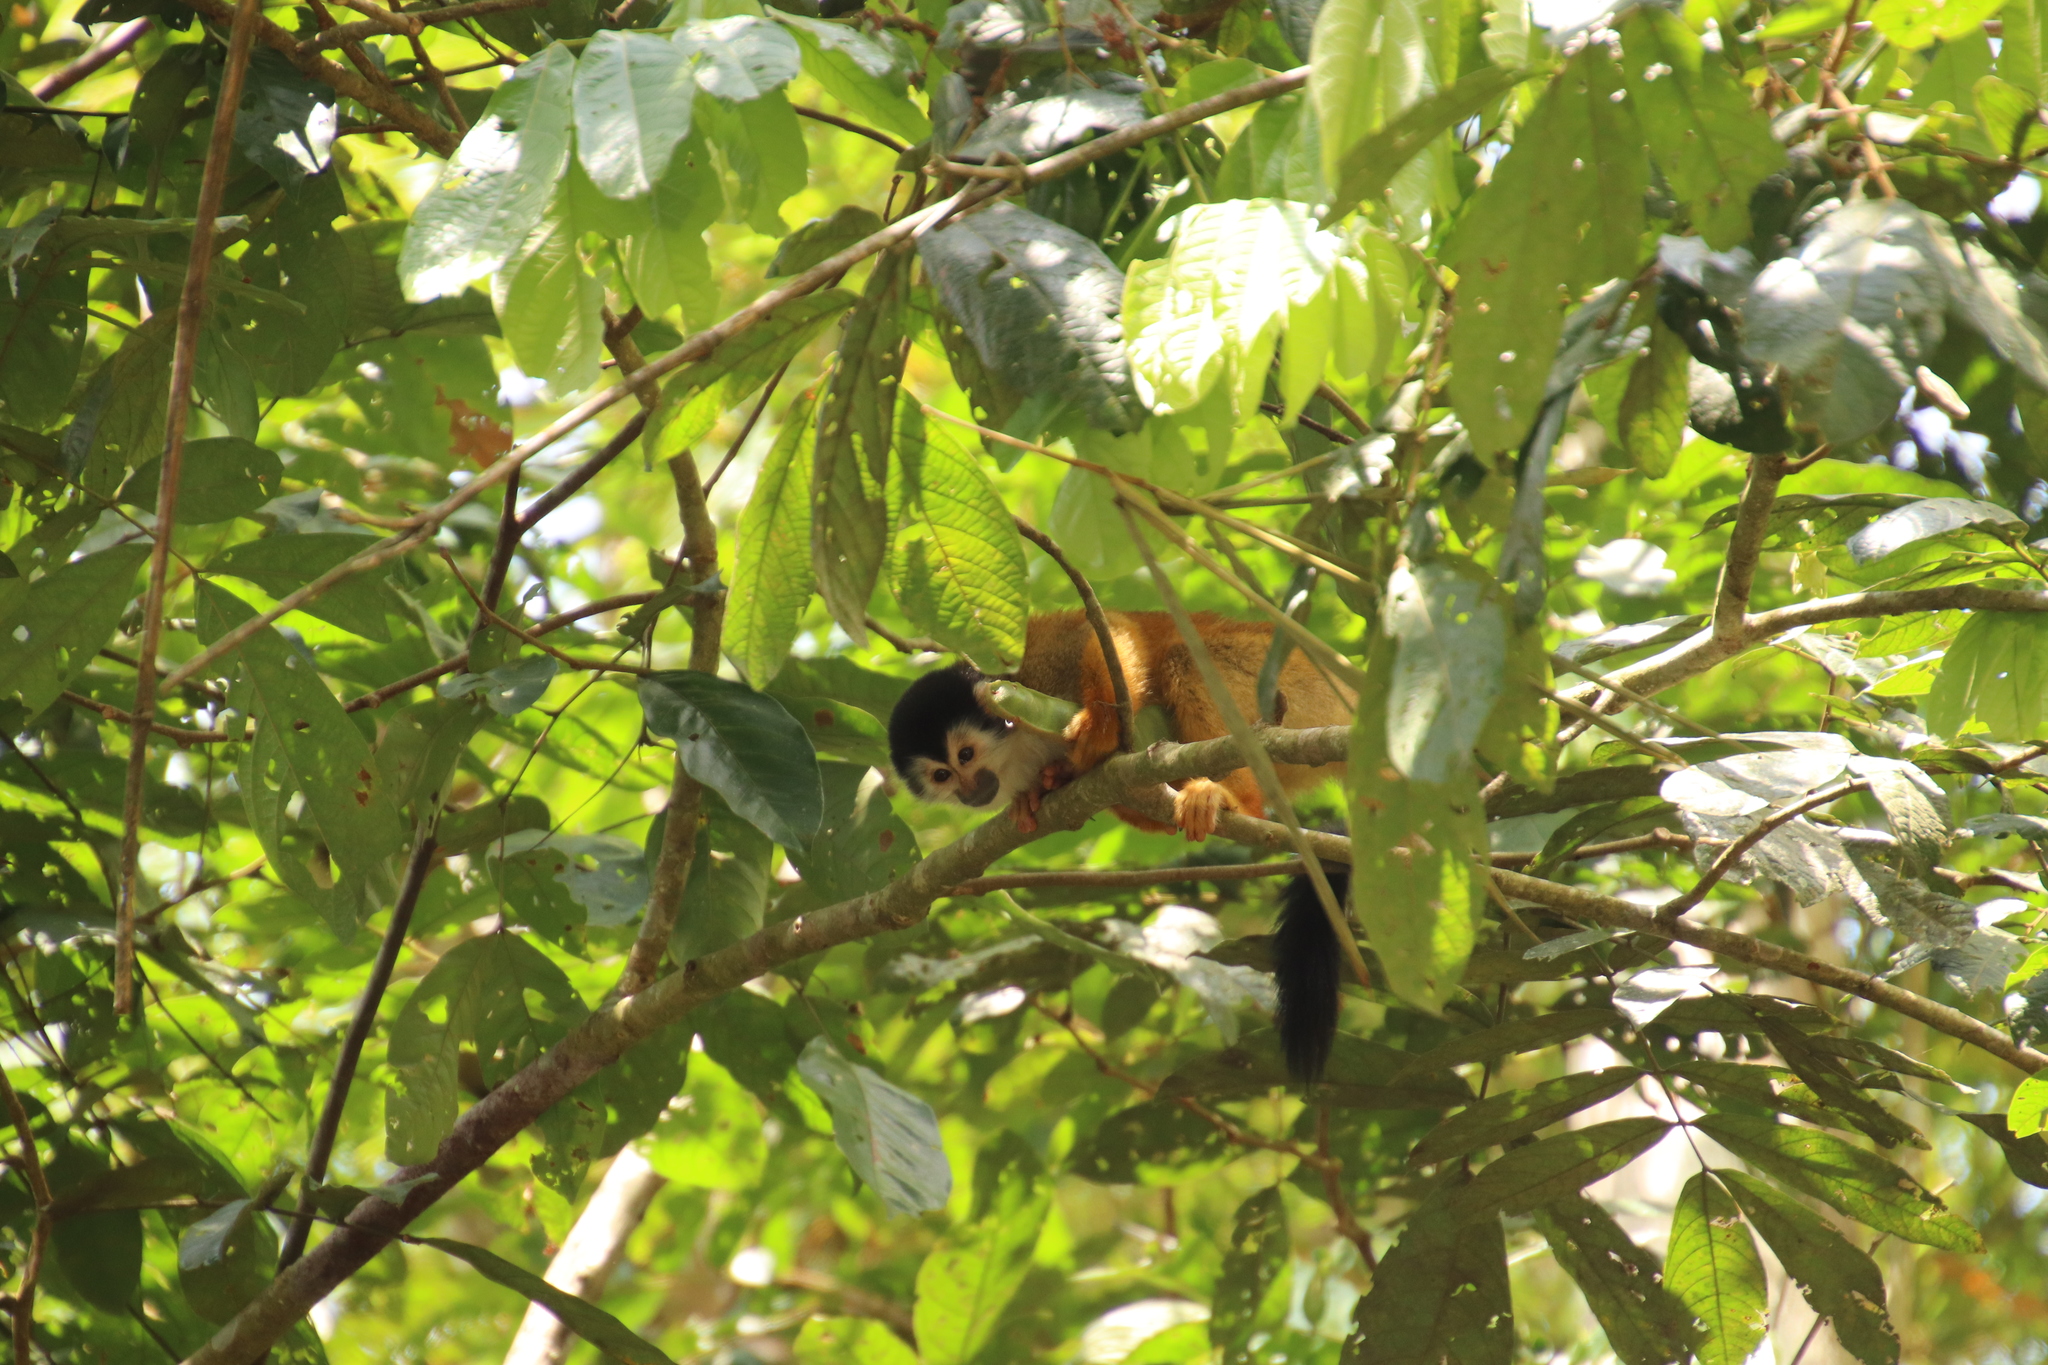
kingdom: Animalia
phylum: Chordata
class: Mammalia
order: Primates
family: Cebidae
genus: Saimiri
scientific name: Saimiri oerstedii
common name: Central american squirrel monkey
